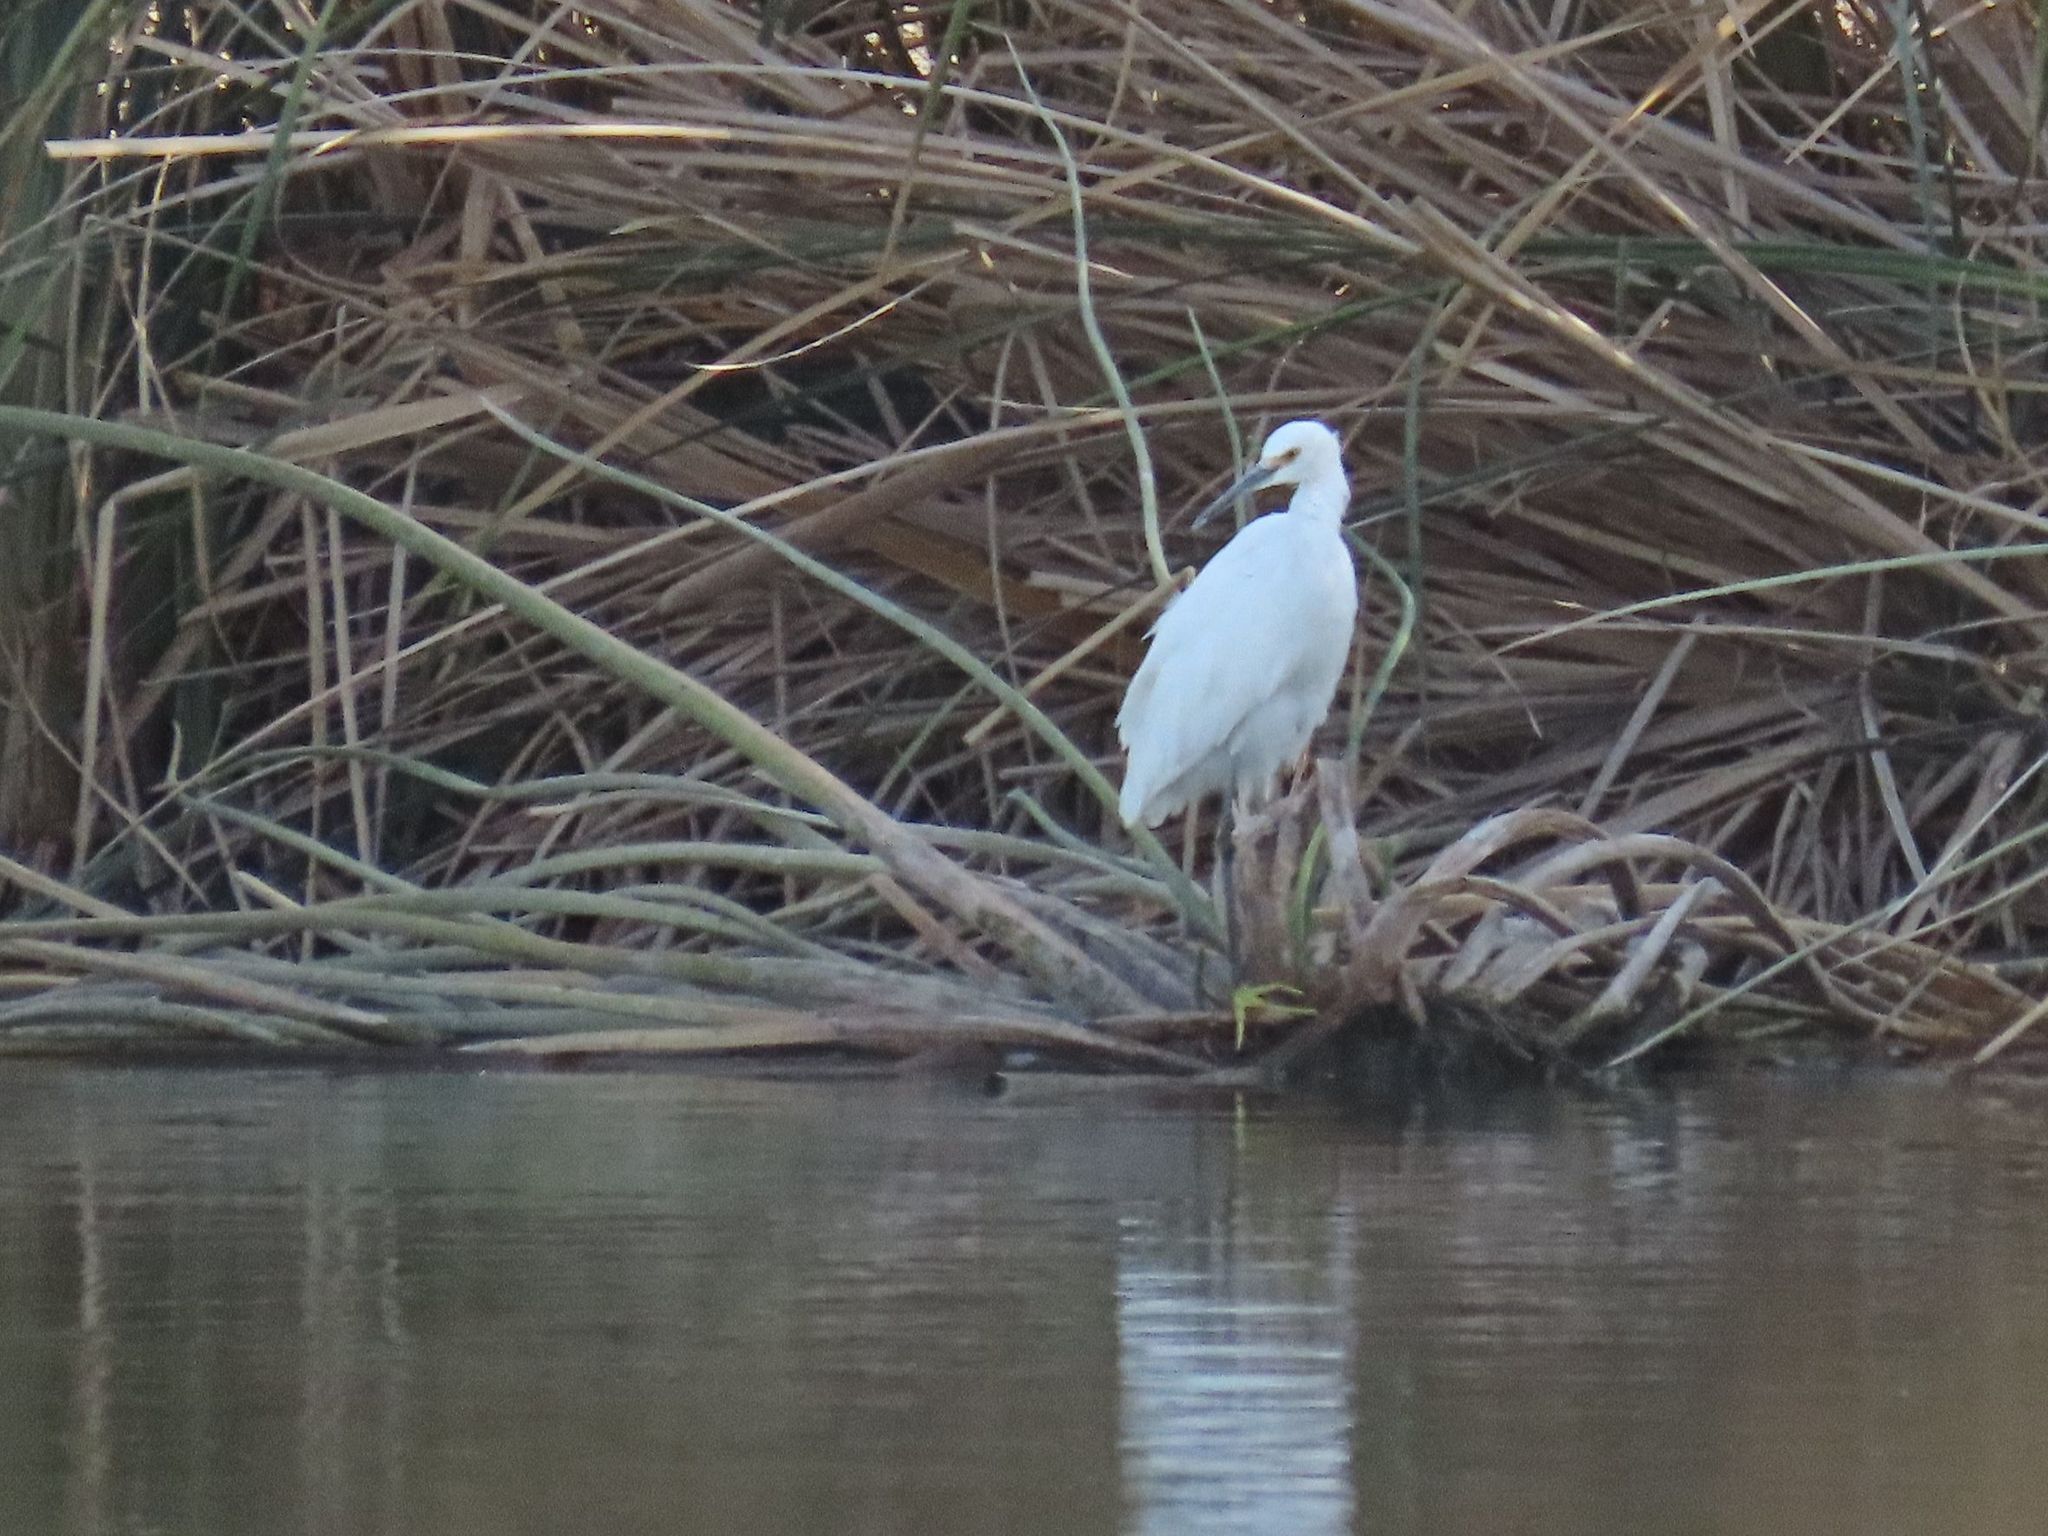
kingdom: Animalia
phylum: Chordata
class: Aves
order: Pelecaniformes
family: Ardeidae
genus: Egretta
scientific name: Egretta thula
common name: Snowy egret
